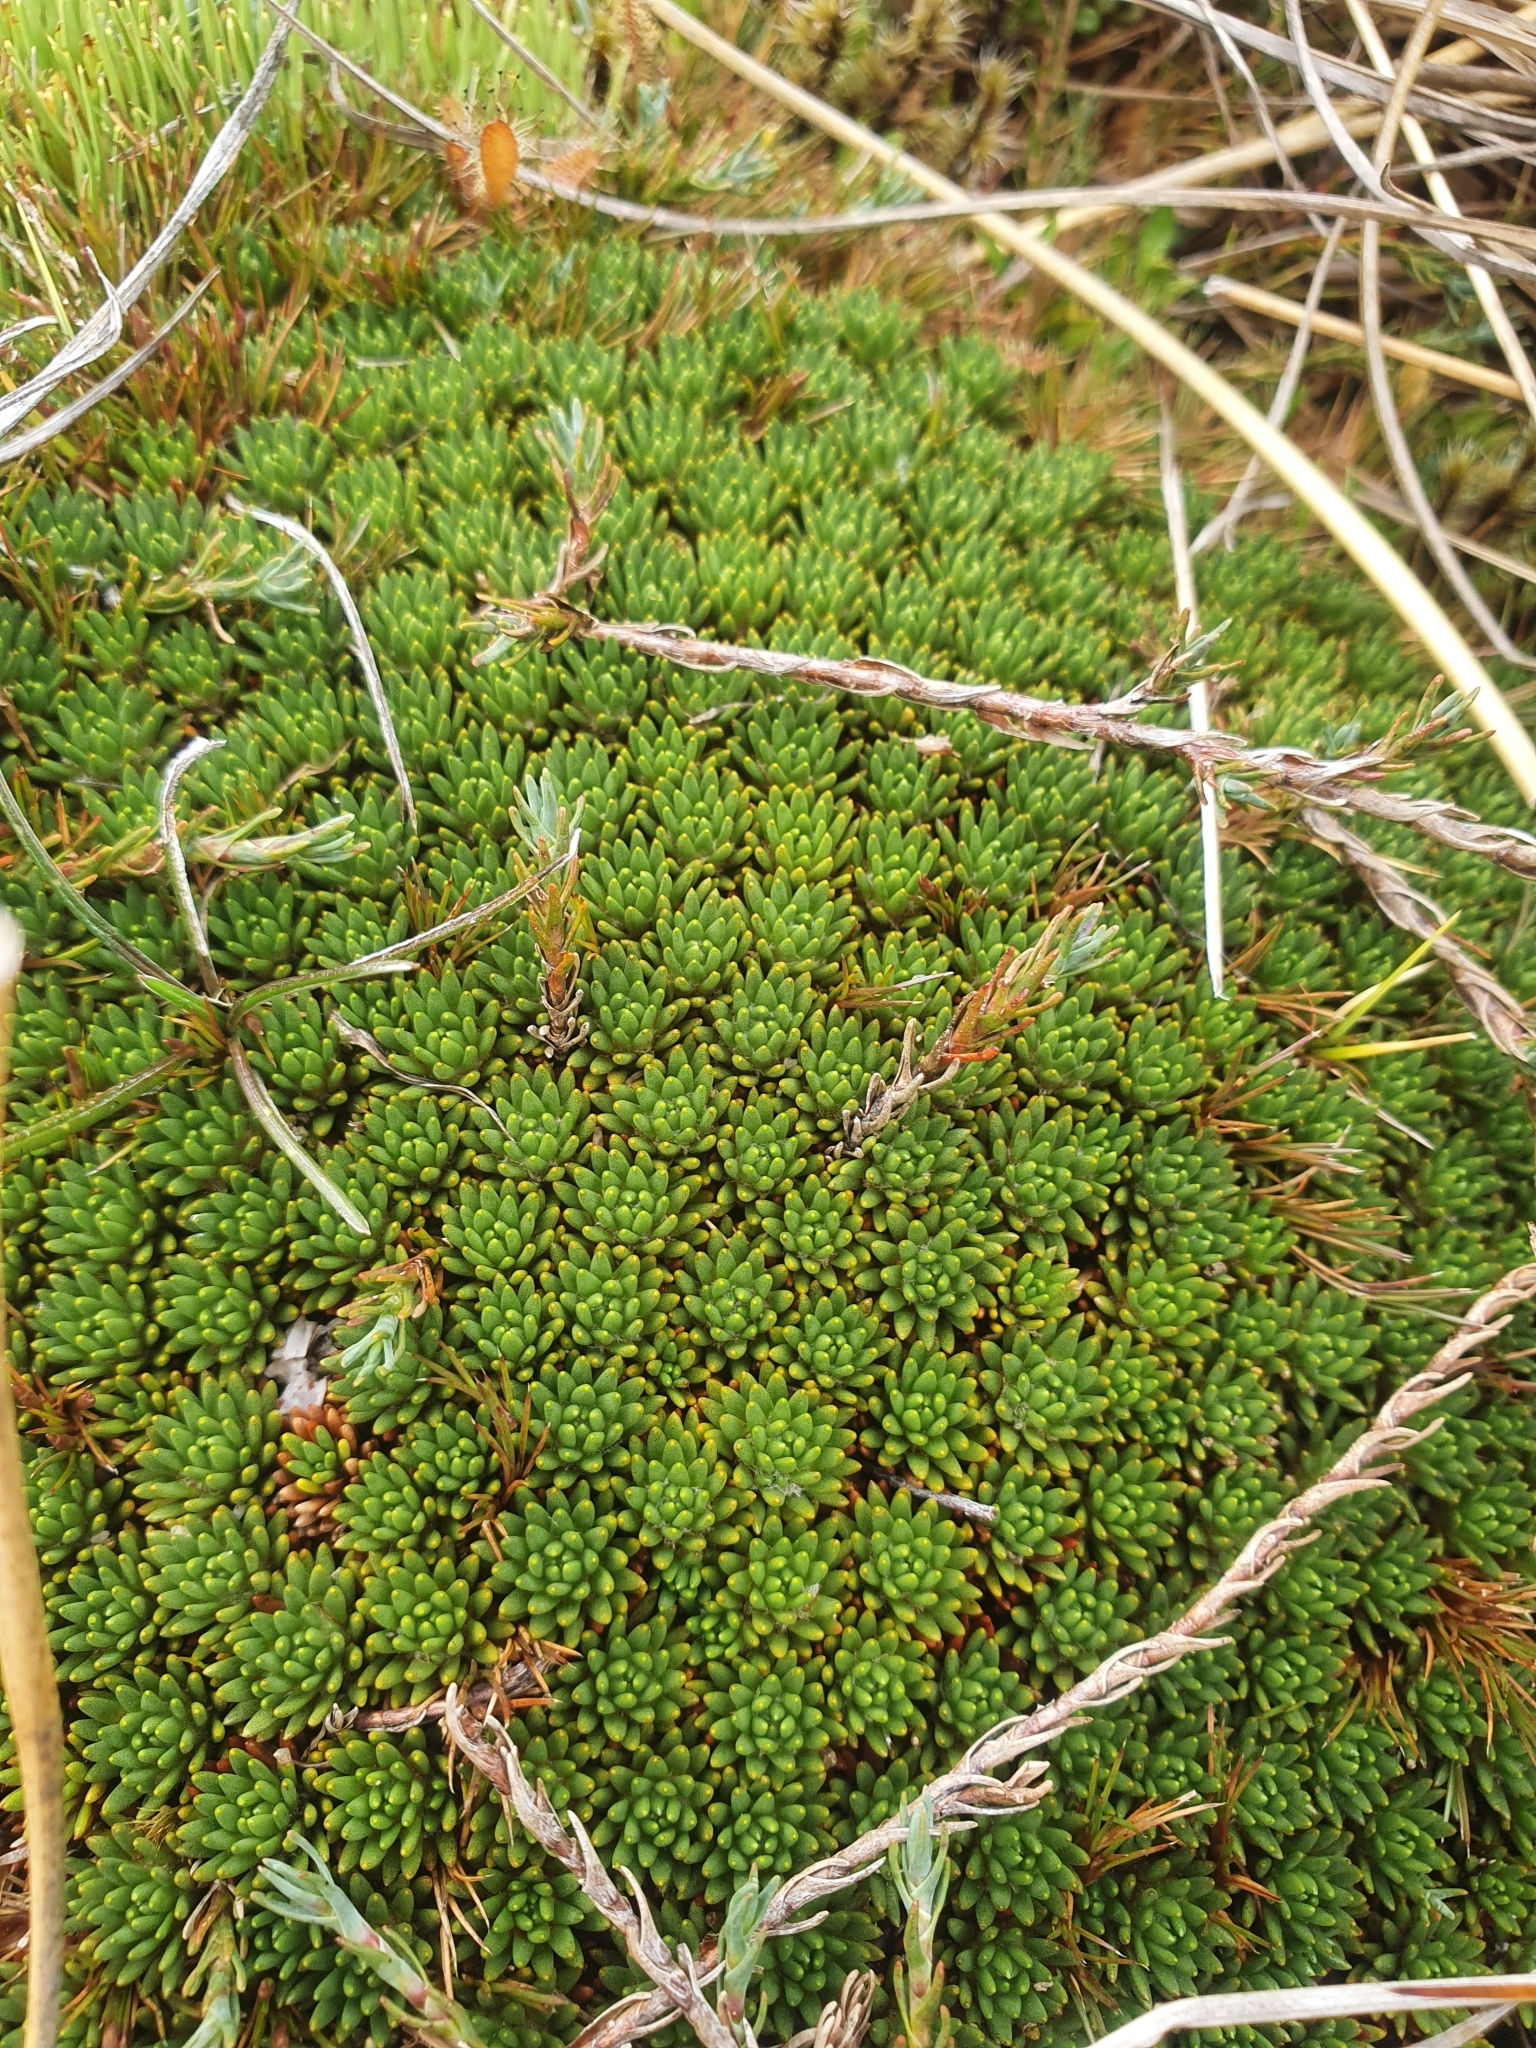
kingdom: Plantae
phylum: Tracheophyta
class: Magnoliopsida
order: Asterales
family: Stylidiaceae
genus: Donatia
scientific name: Donatia novae-zelandiae
